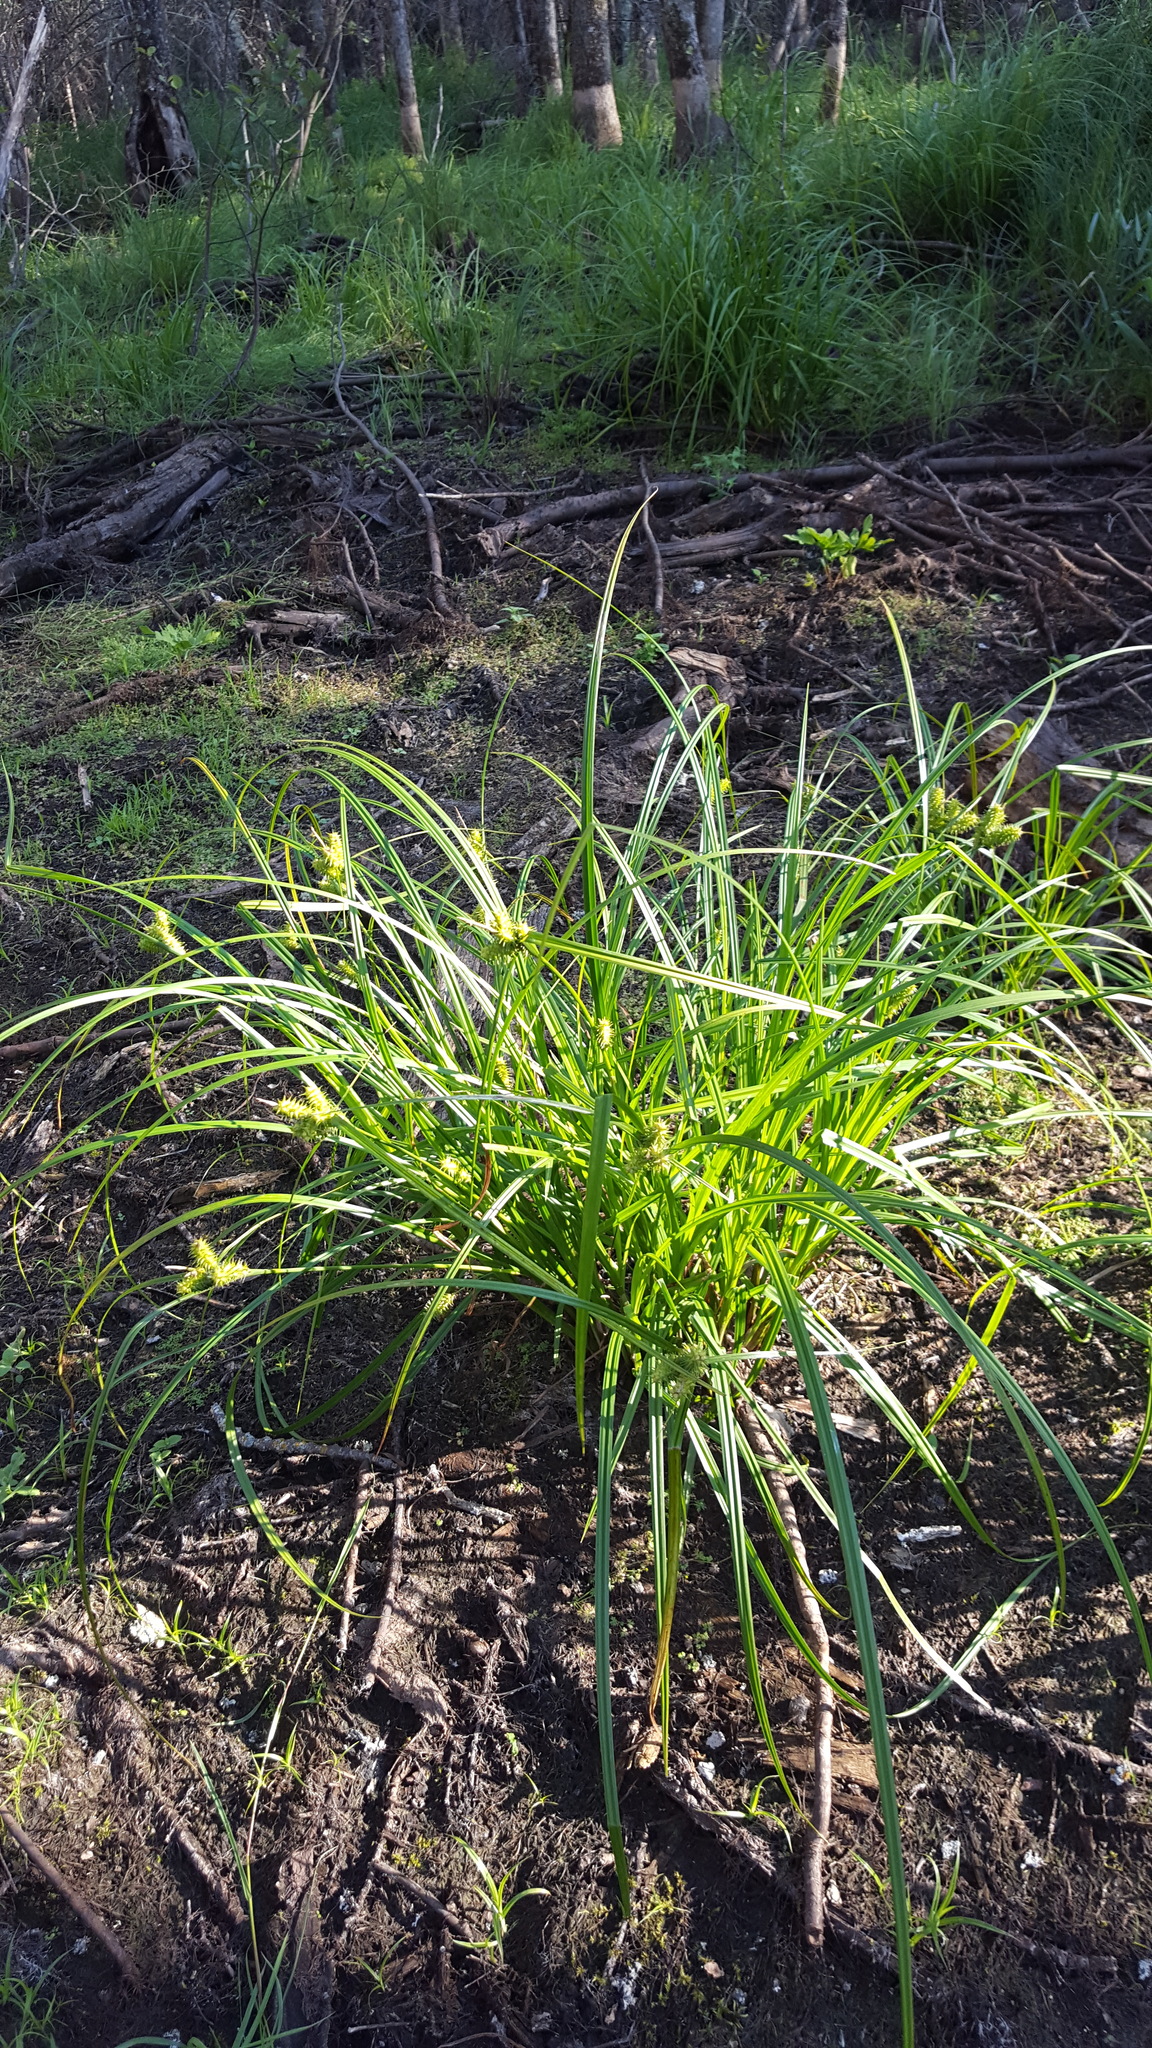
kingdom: Plantae
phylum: Tracheophyta
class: Liliopsida
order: Poales
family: Cyperaceae
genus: Carex
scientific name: Carex retrorsa
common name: Knot-sheath sedge
